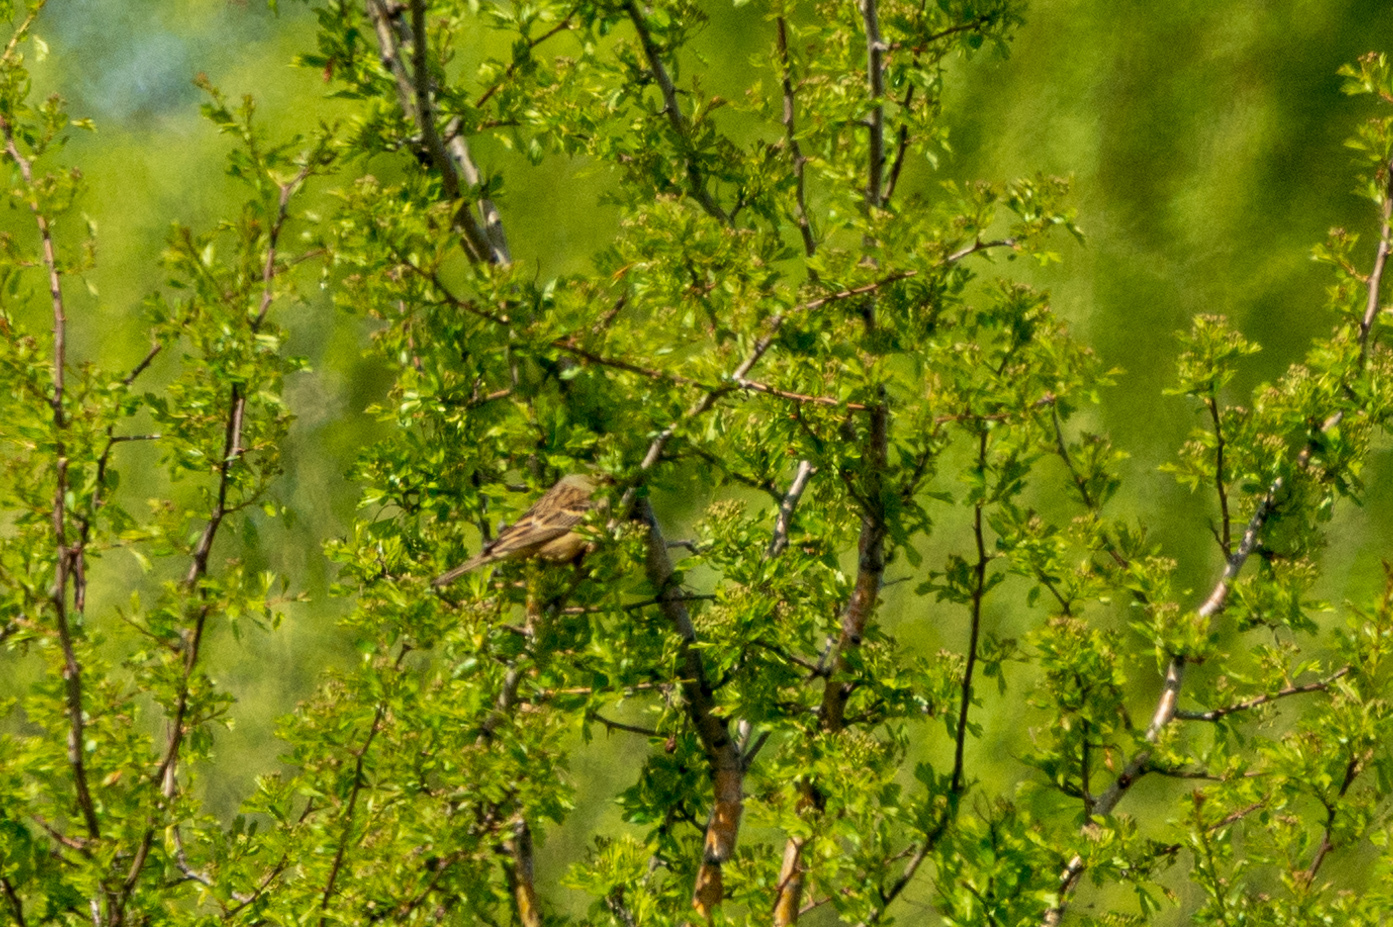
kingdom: Animalia
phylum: Chordata
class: Aves
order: Passeriformes
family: Emberizidae
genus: Emberiza
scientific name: Emberiza hortulana
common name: Ortolan bunting
